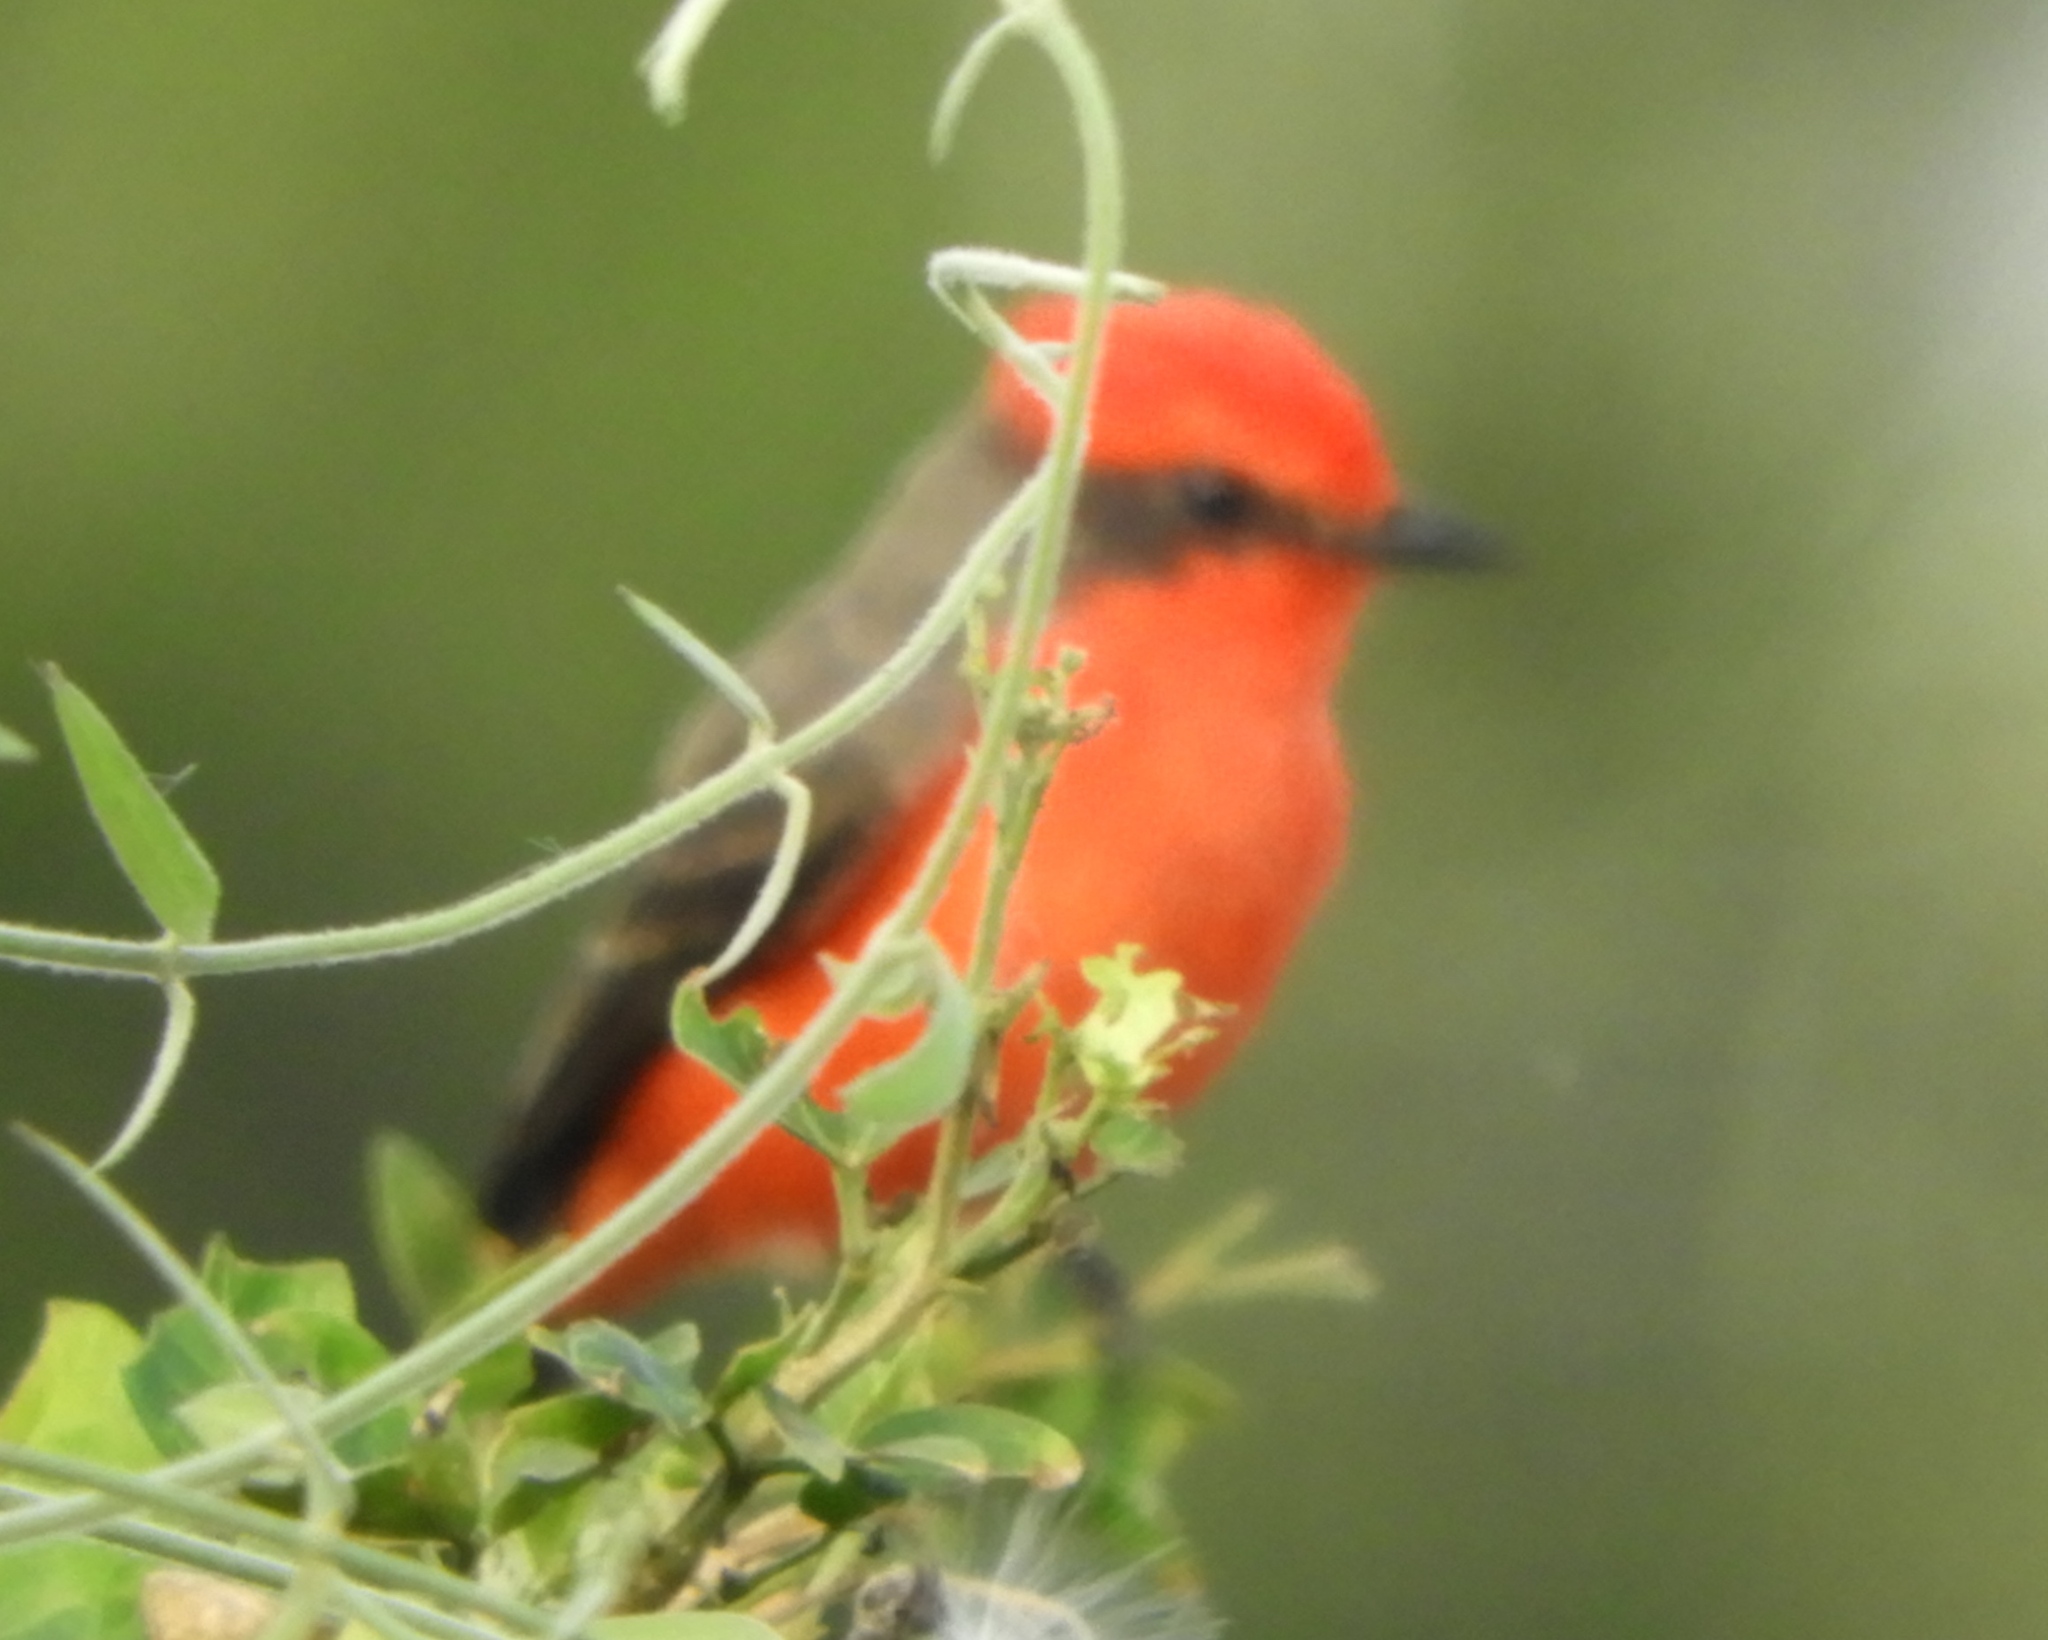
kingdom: Animalia
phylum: Chordata
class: Aves
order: Passeriformes
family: Tyrannidae
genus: Pyrocephalus
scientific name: Pyrocephalus rubinus
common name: Vermilion flycatcher
